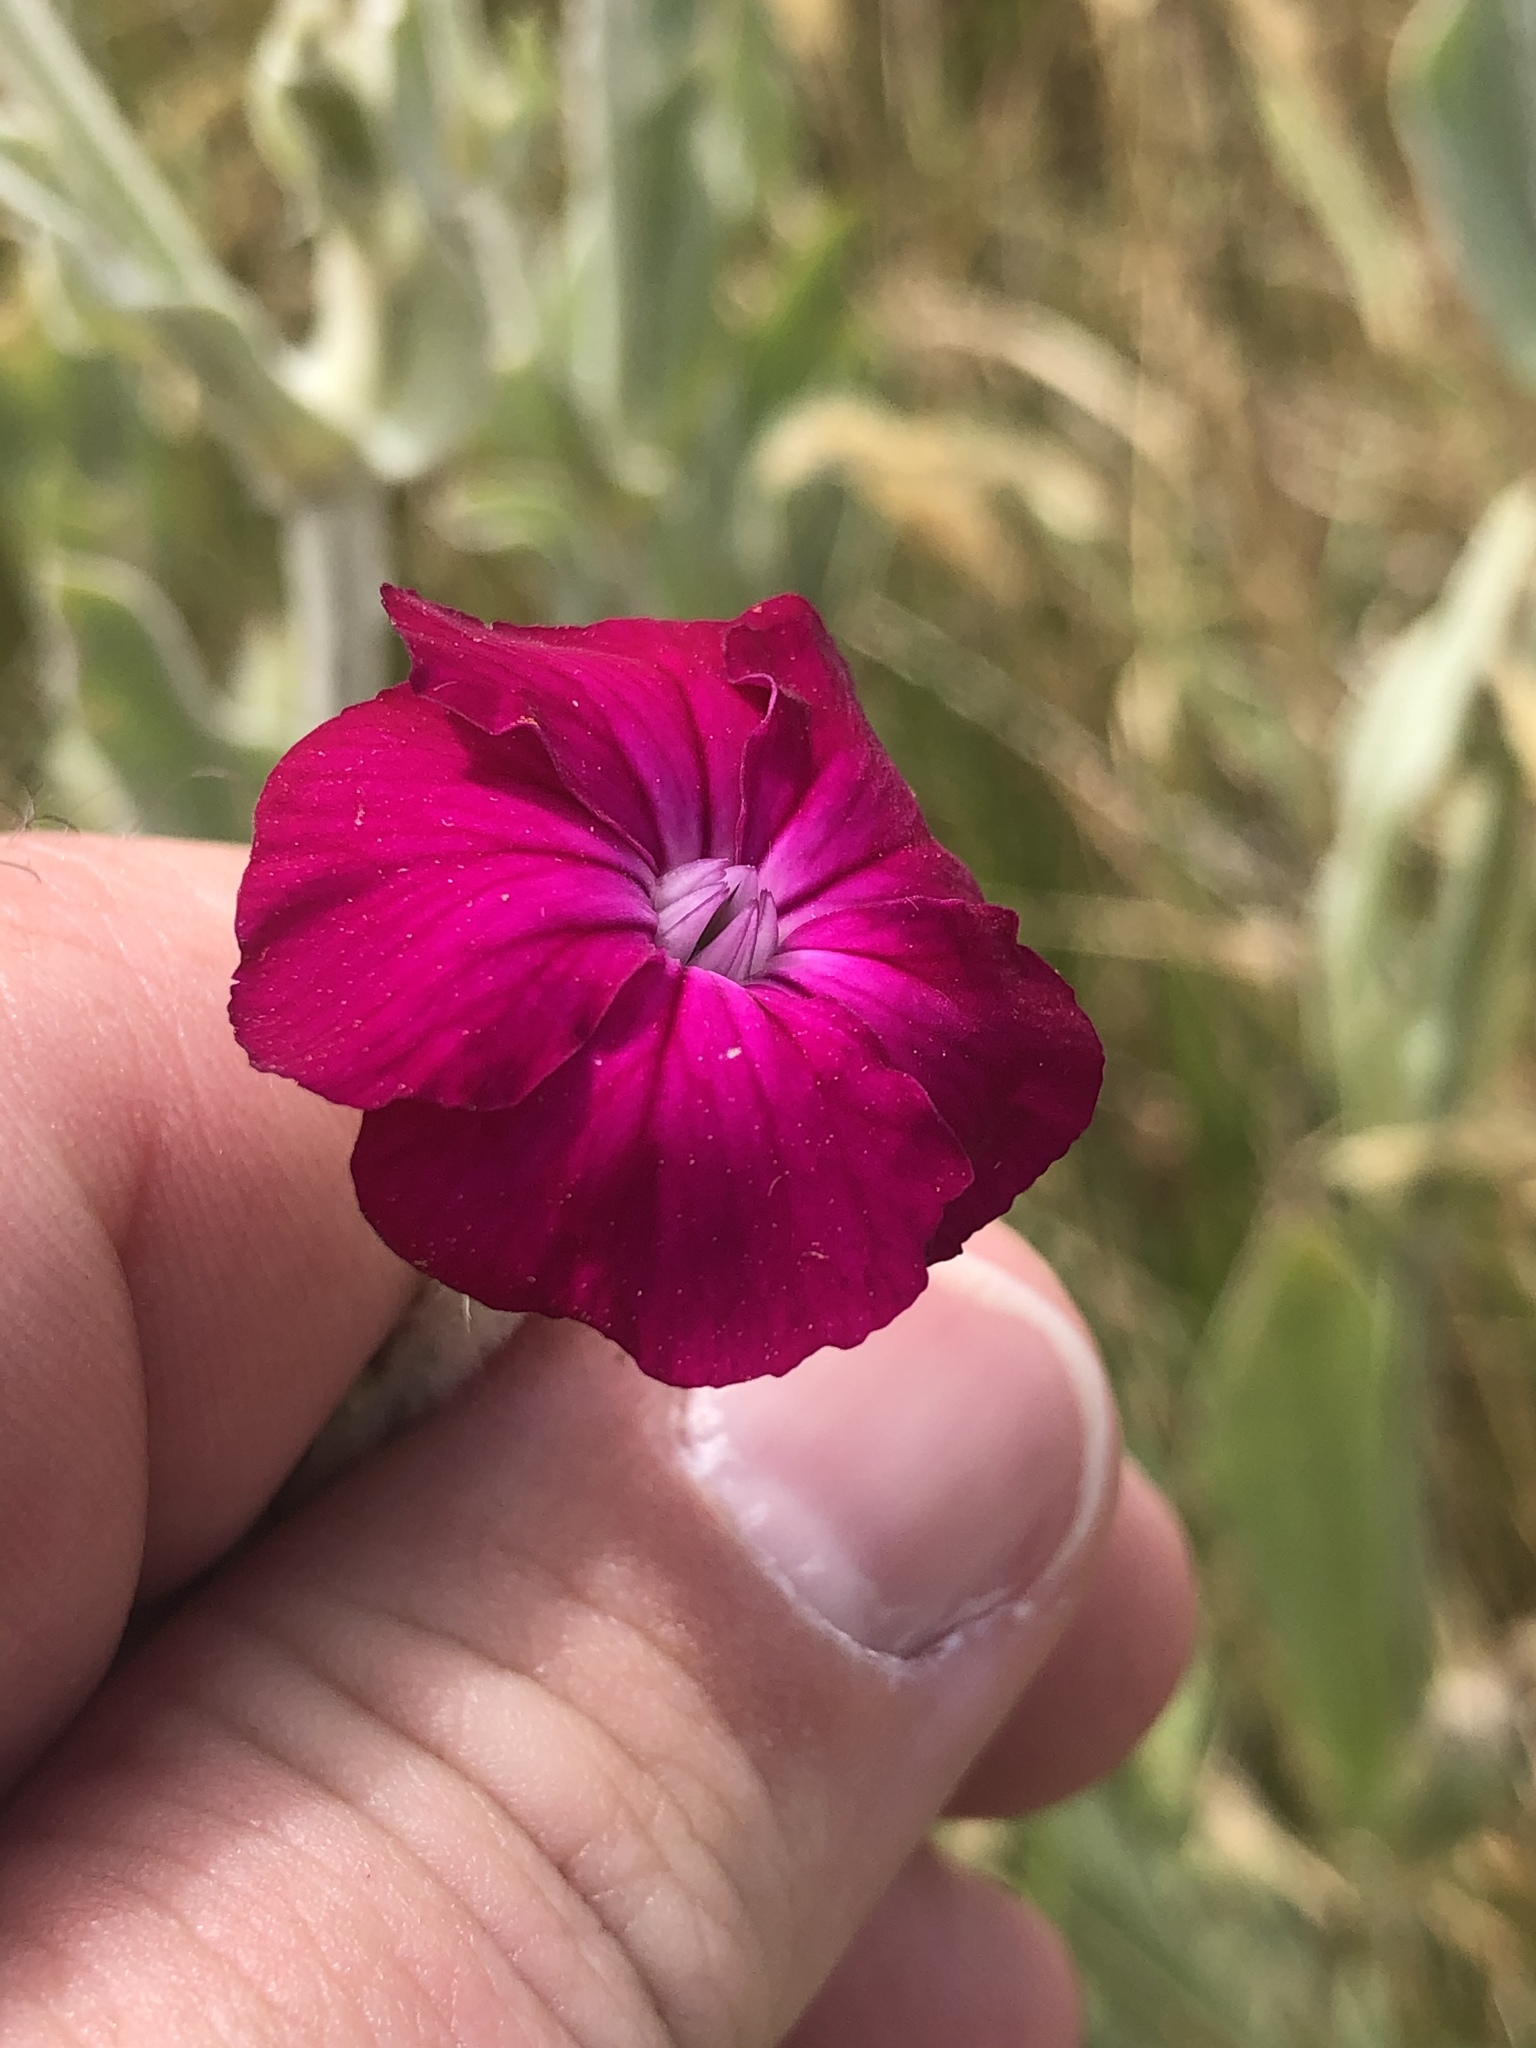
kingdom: Plantae
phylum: Tracheophyta
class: Magnoliopsida
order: Caryophyllales
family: Caryophyllaceae
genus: Silene
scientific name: Silene coronaria
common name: Rose campion
